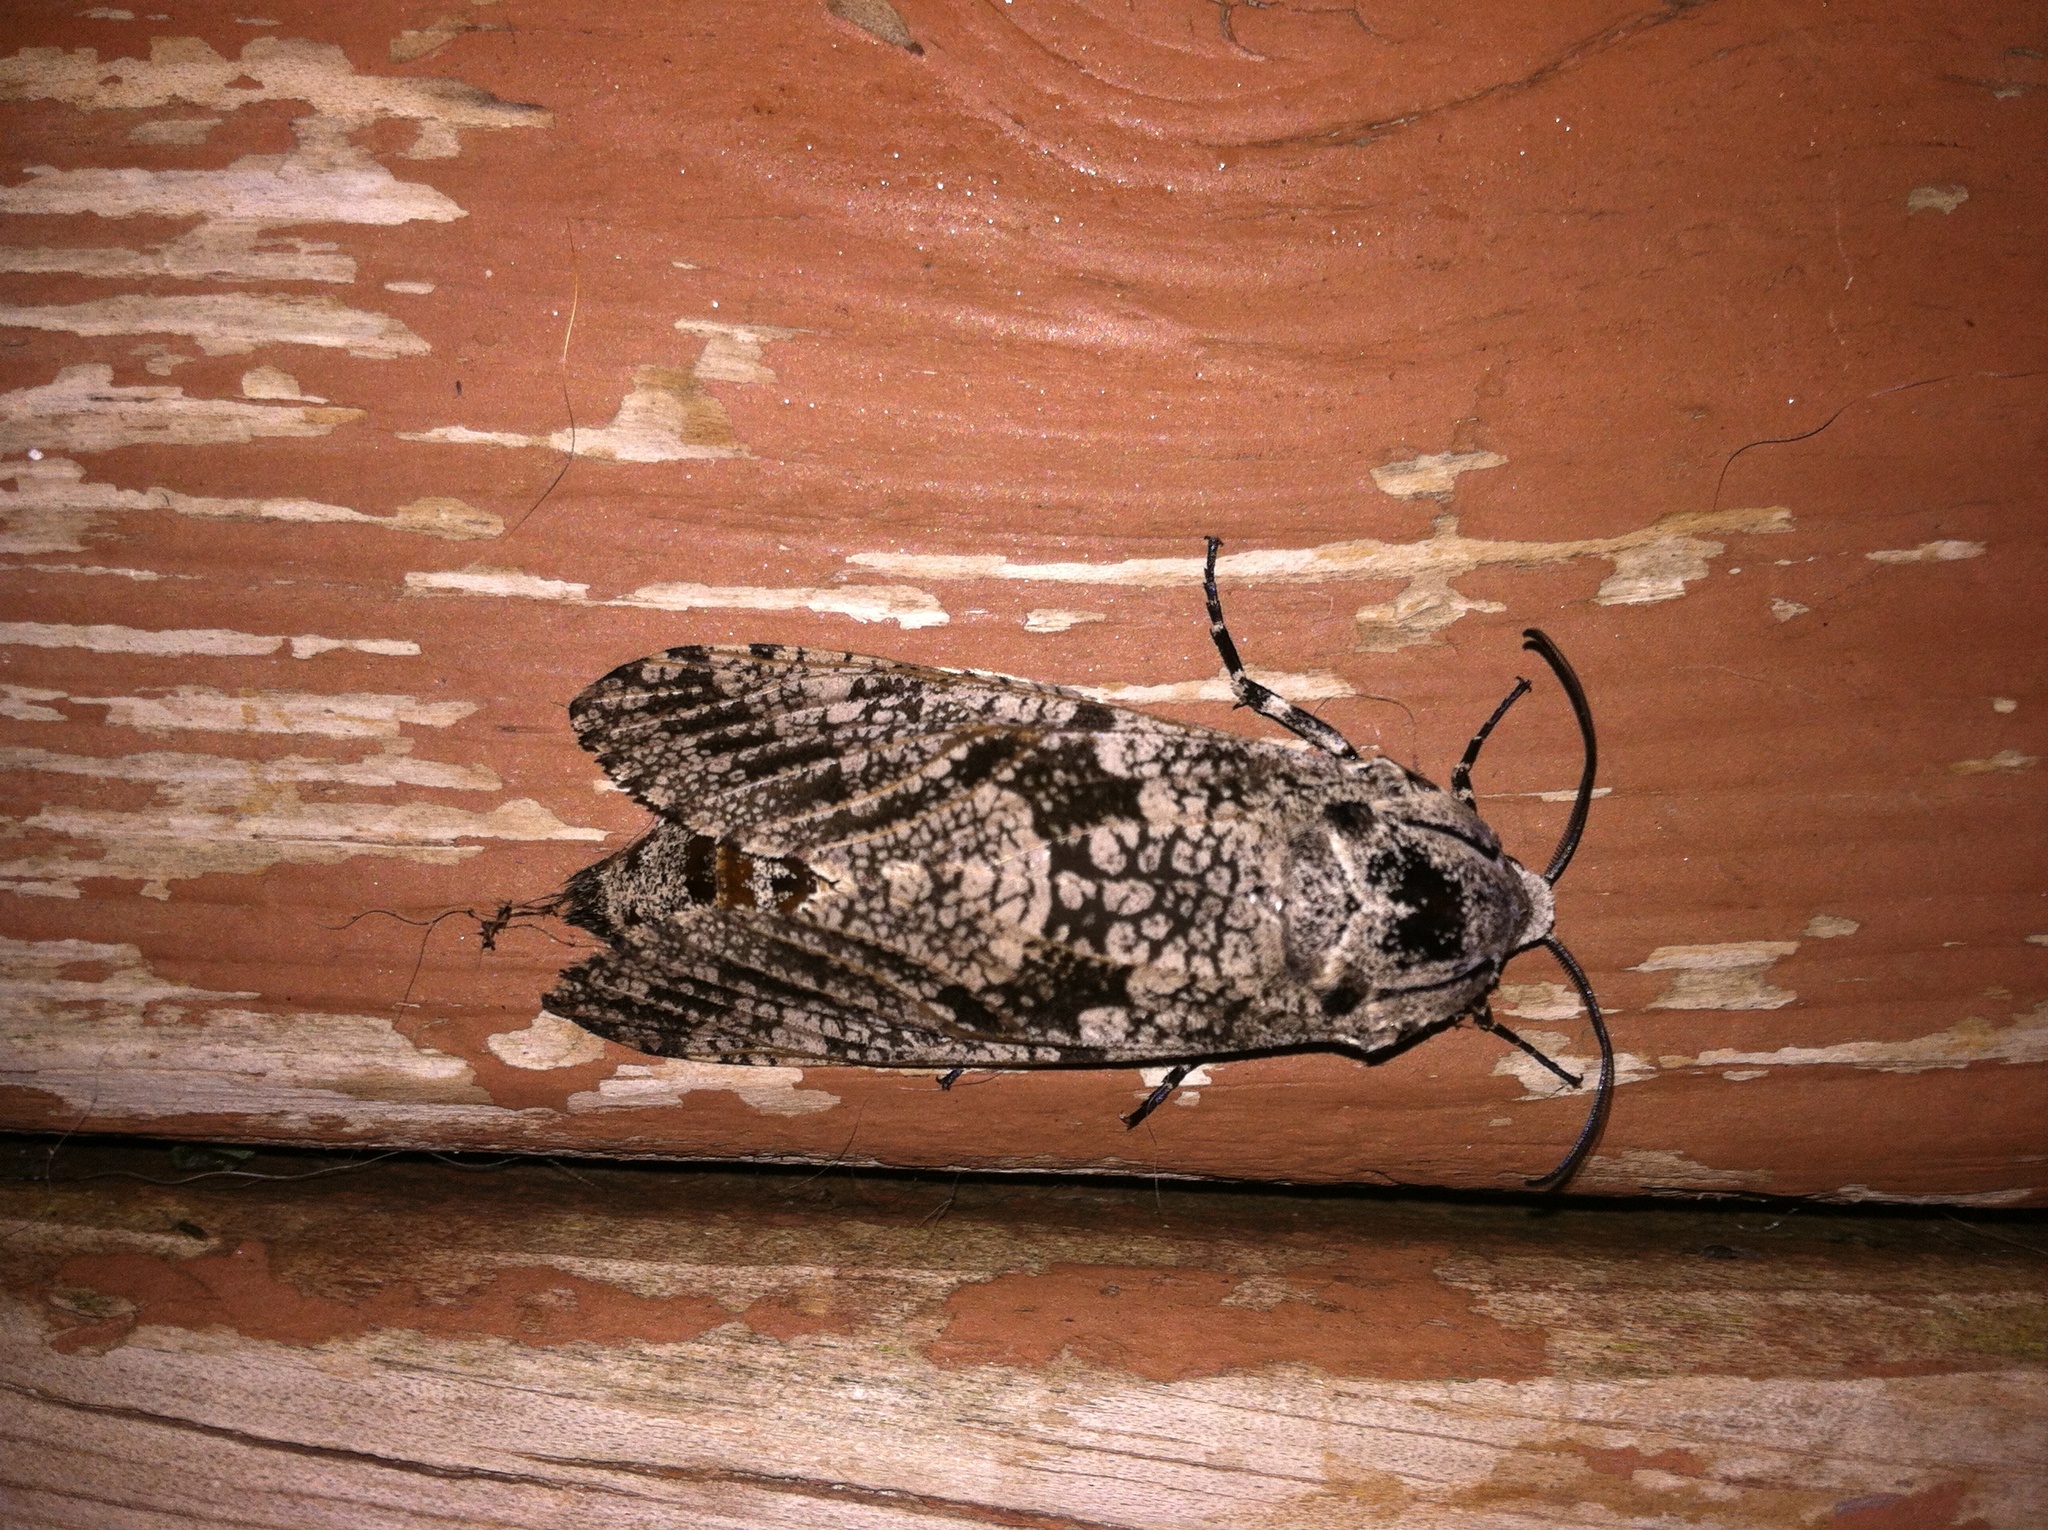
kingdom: Animalia
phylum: Arthropoda
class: Insecta
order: Lepidoptera
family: Cossidae
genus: Prionoxystus
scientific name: Prionoxystus robiniae
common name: Carpenterworm
